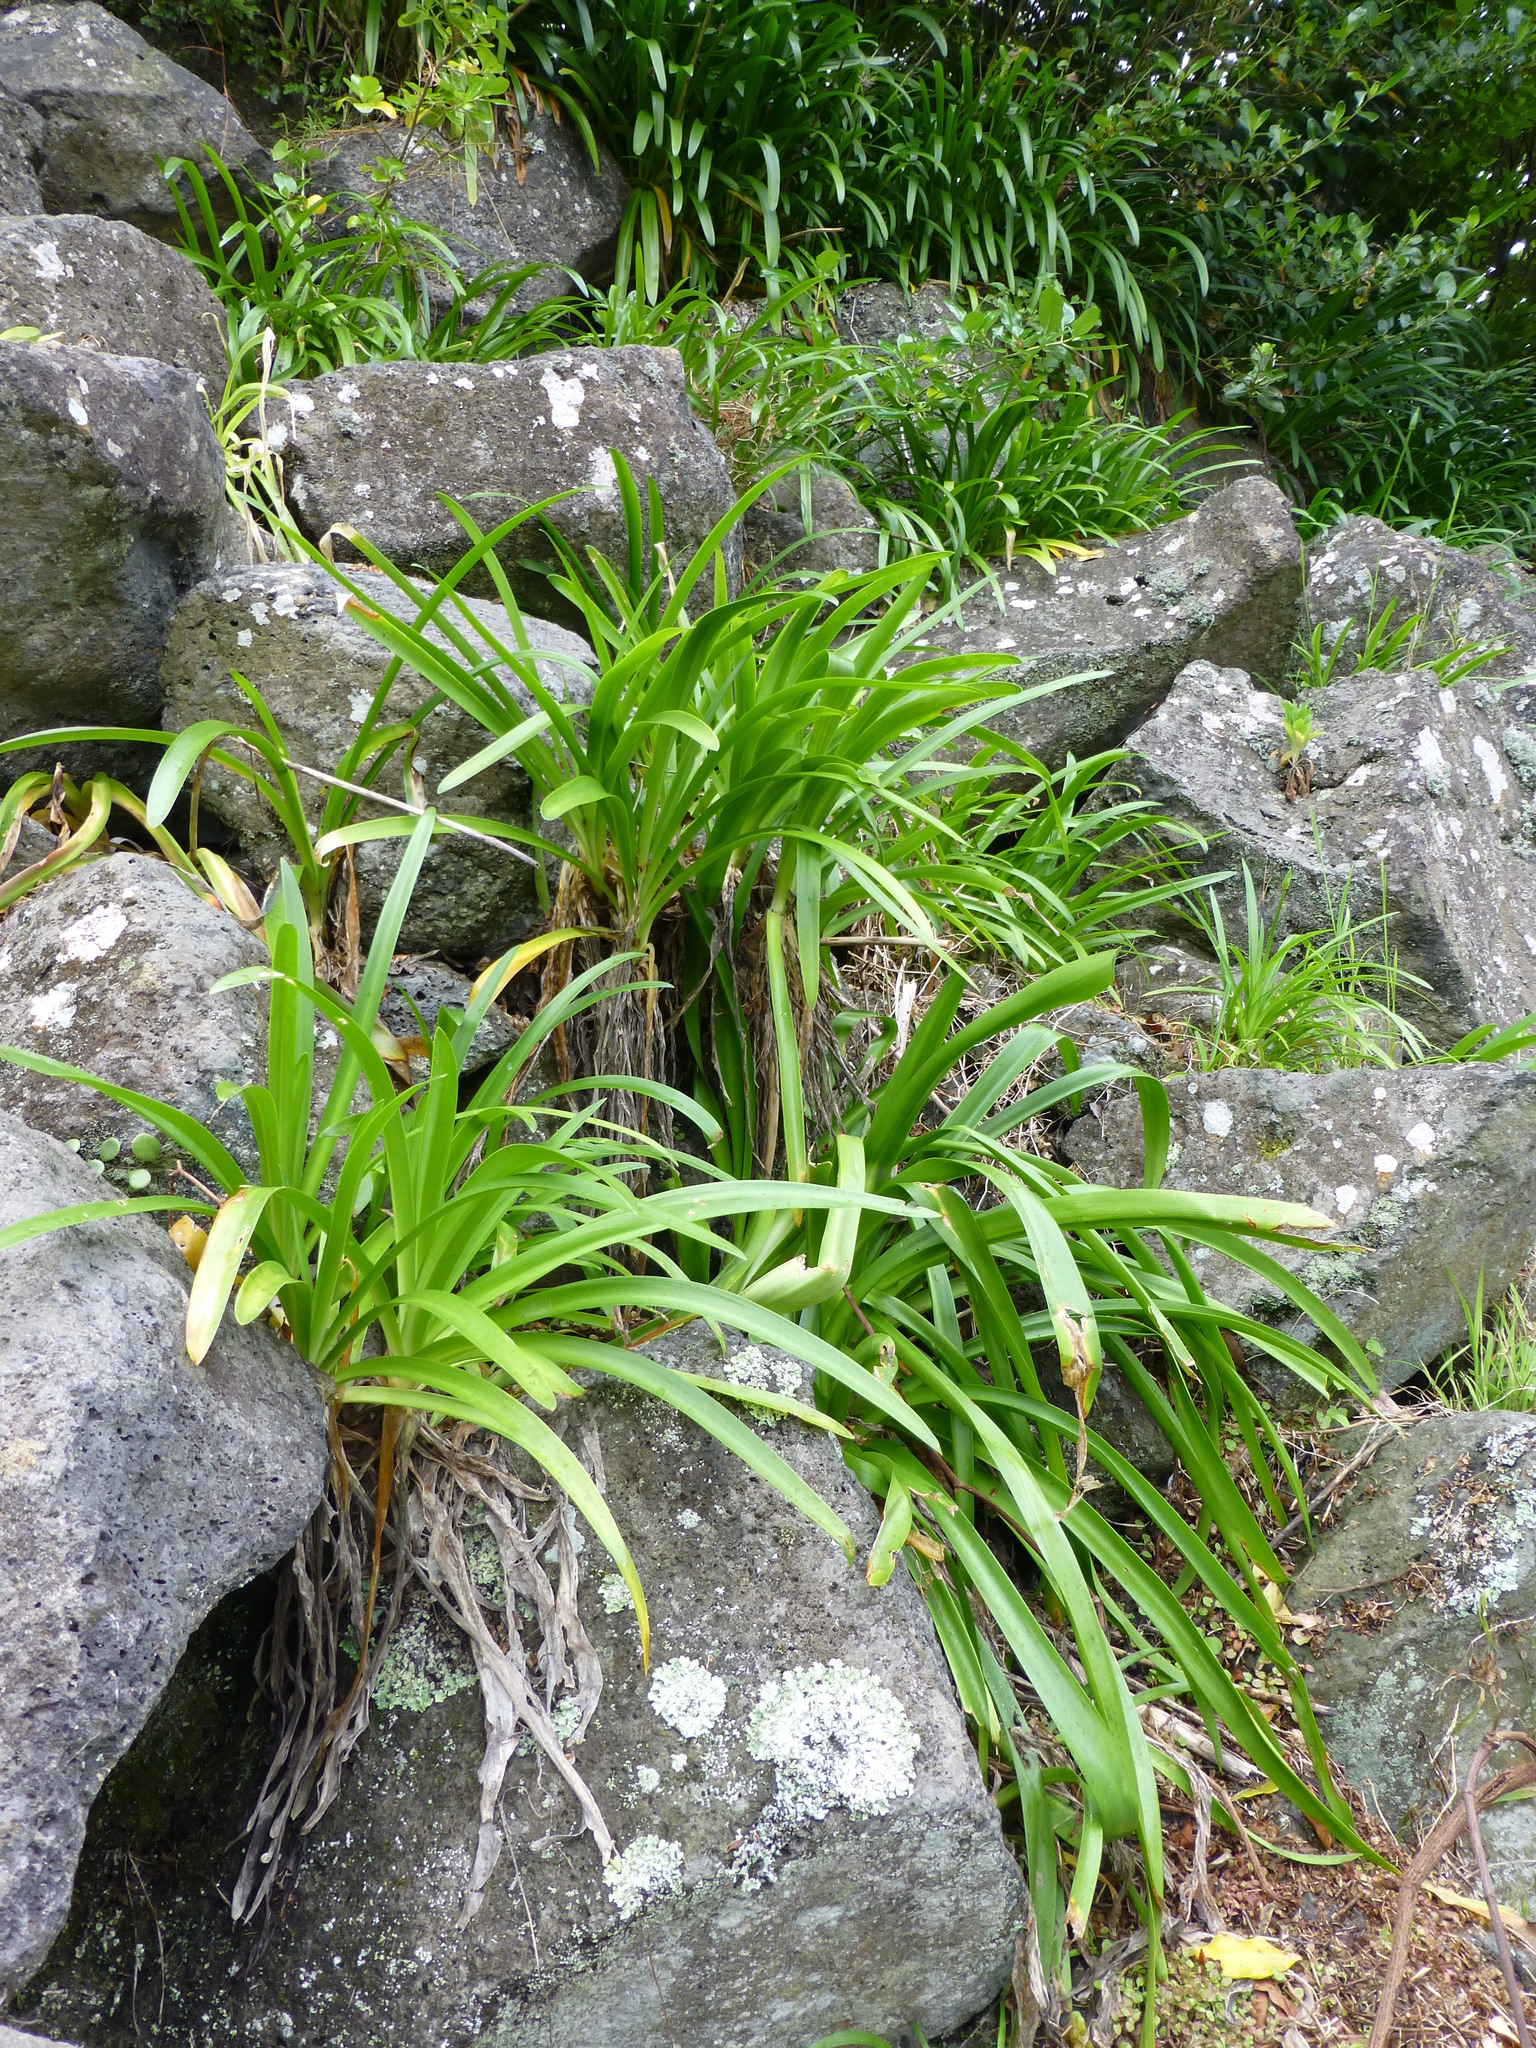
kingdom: Plantae
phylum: Tracheophyta
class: Liliopsida
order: Asparagales
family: Amaryllidaceae
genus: Agapanthus
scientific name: Agapanthus praecox
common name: African-lily
